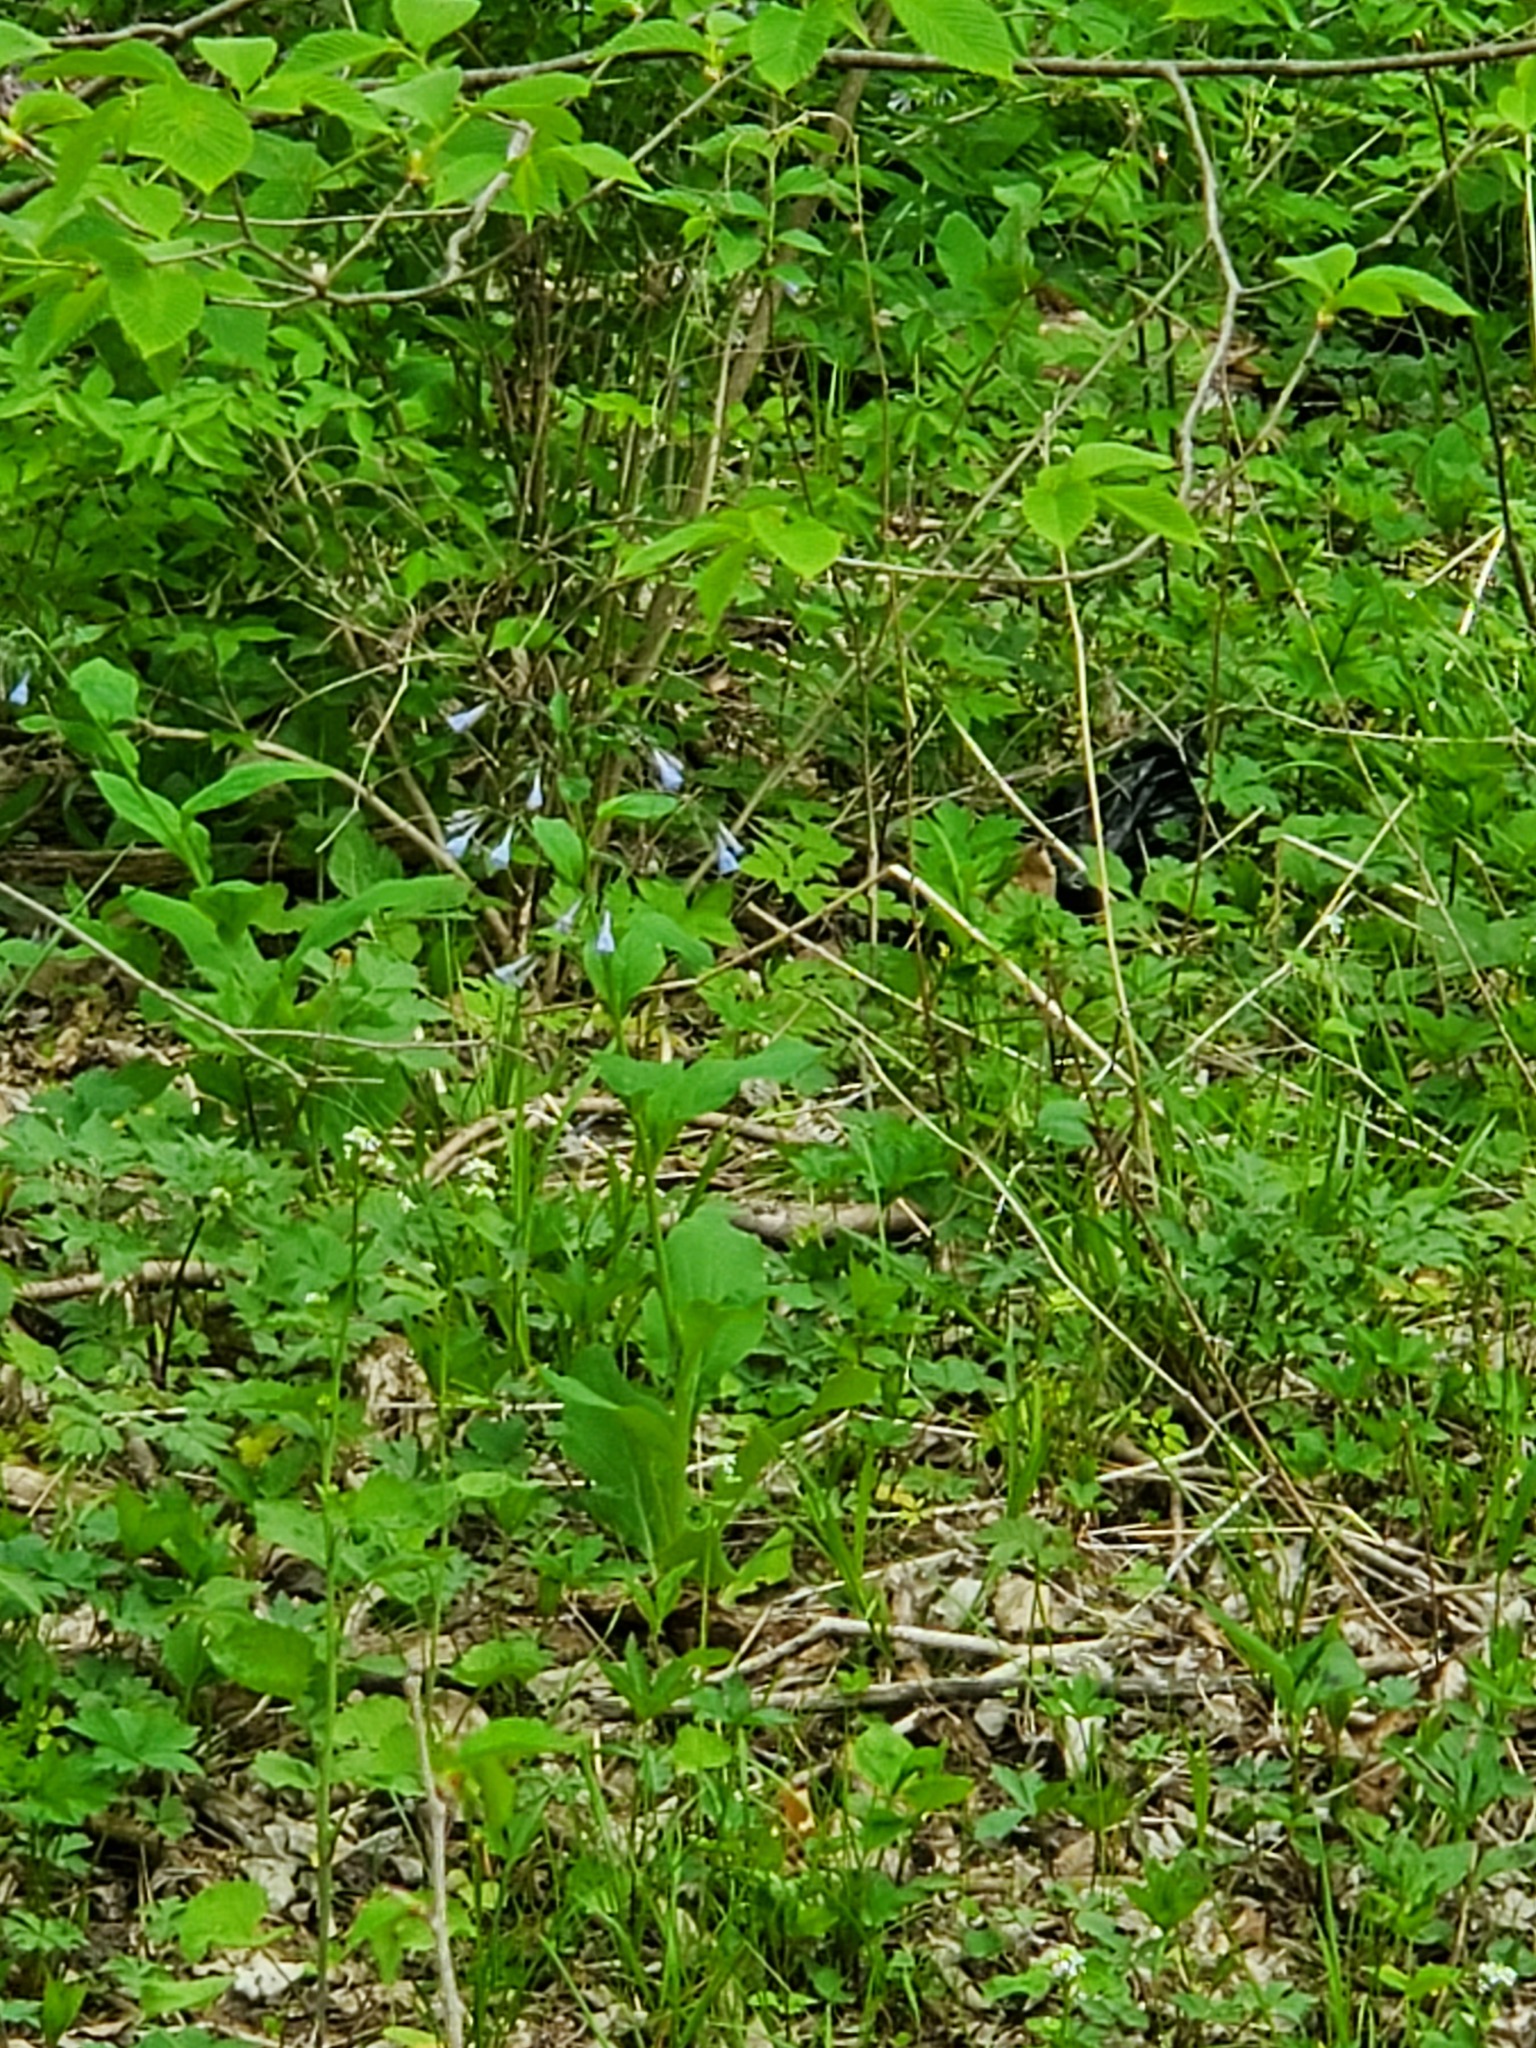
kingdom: Plantae
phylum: Tracheophyta
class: Magnoliopsida
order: Boraginales
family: Boraginaceae
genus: Mertensia
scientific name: Mertensia virginica
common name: Virginia bluebells
